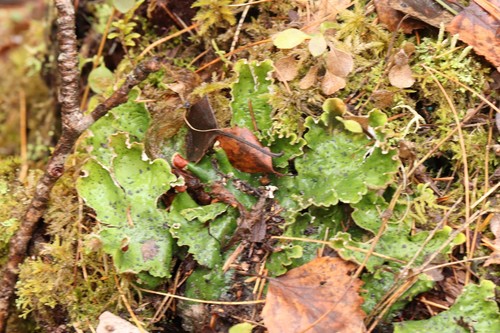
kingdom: Fungi
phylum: Ascomycota
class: Lecanoromycetes
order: Peltigerales
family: Peltigeraceae
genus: Peltigera
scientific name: Peltigera
